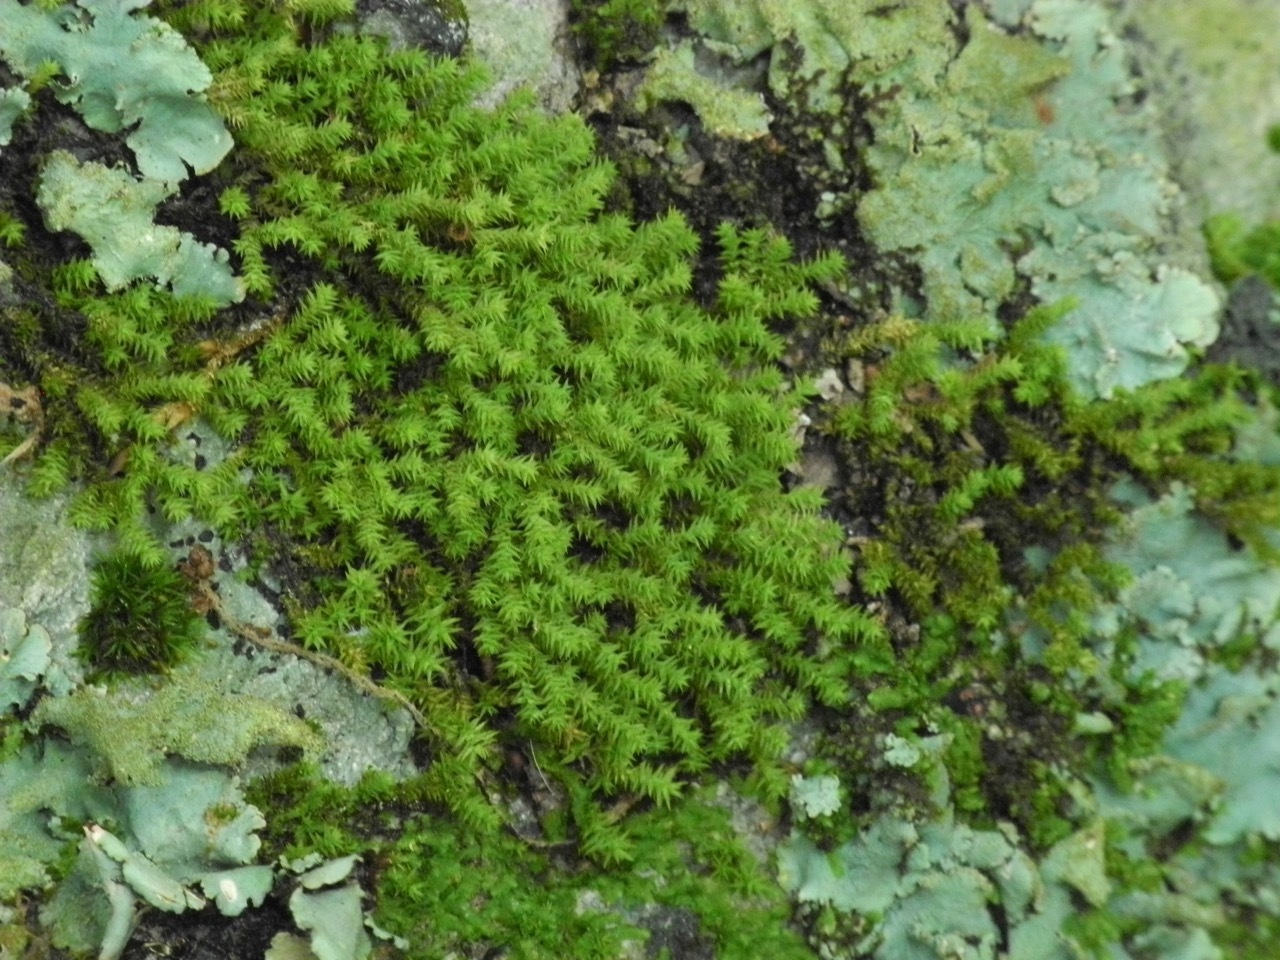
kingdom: Plantae
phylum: Bryophyta
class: Bryopsida
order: Hedwigiales
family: Hedwigiaceae
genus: Hedwigia
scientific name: Hedwigia ciliata
